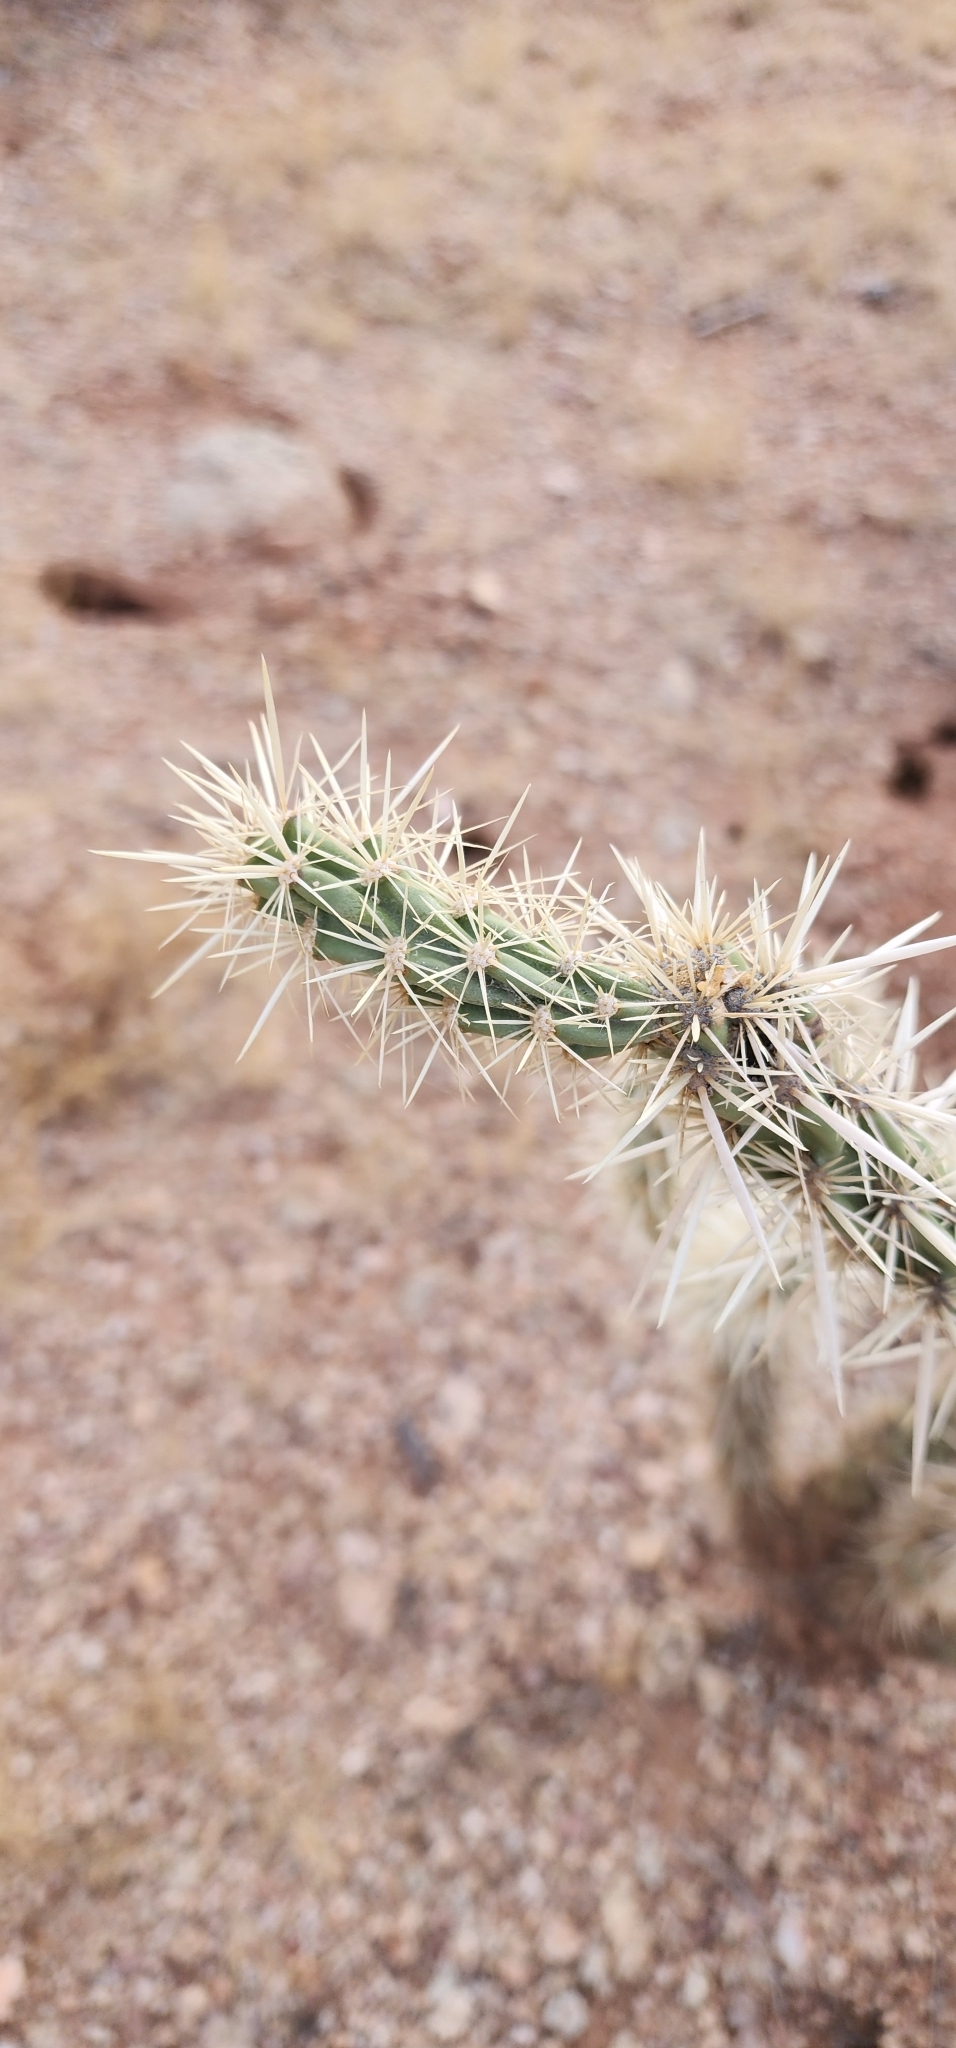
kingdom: Plantae
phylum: Tracheophyta
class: Magnoliopsida
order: Caryophyllales
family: Cactaceae
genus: Cylindropuntia
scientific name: Cylindropuntia acanthocarpa
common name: Buckhorn cholla
